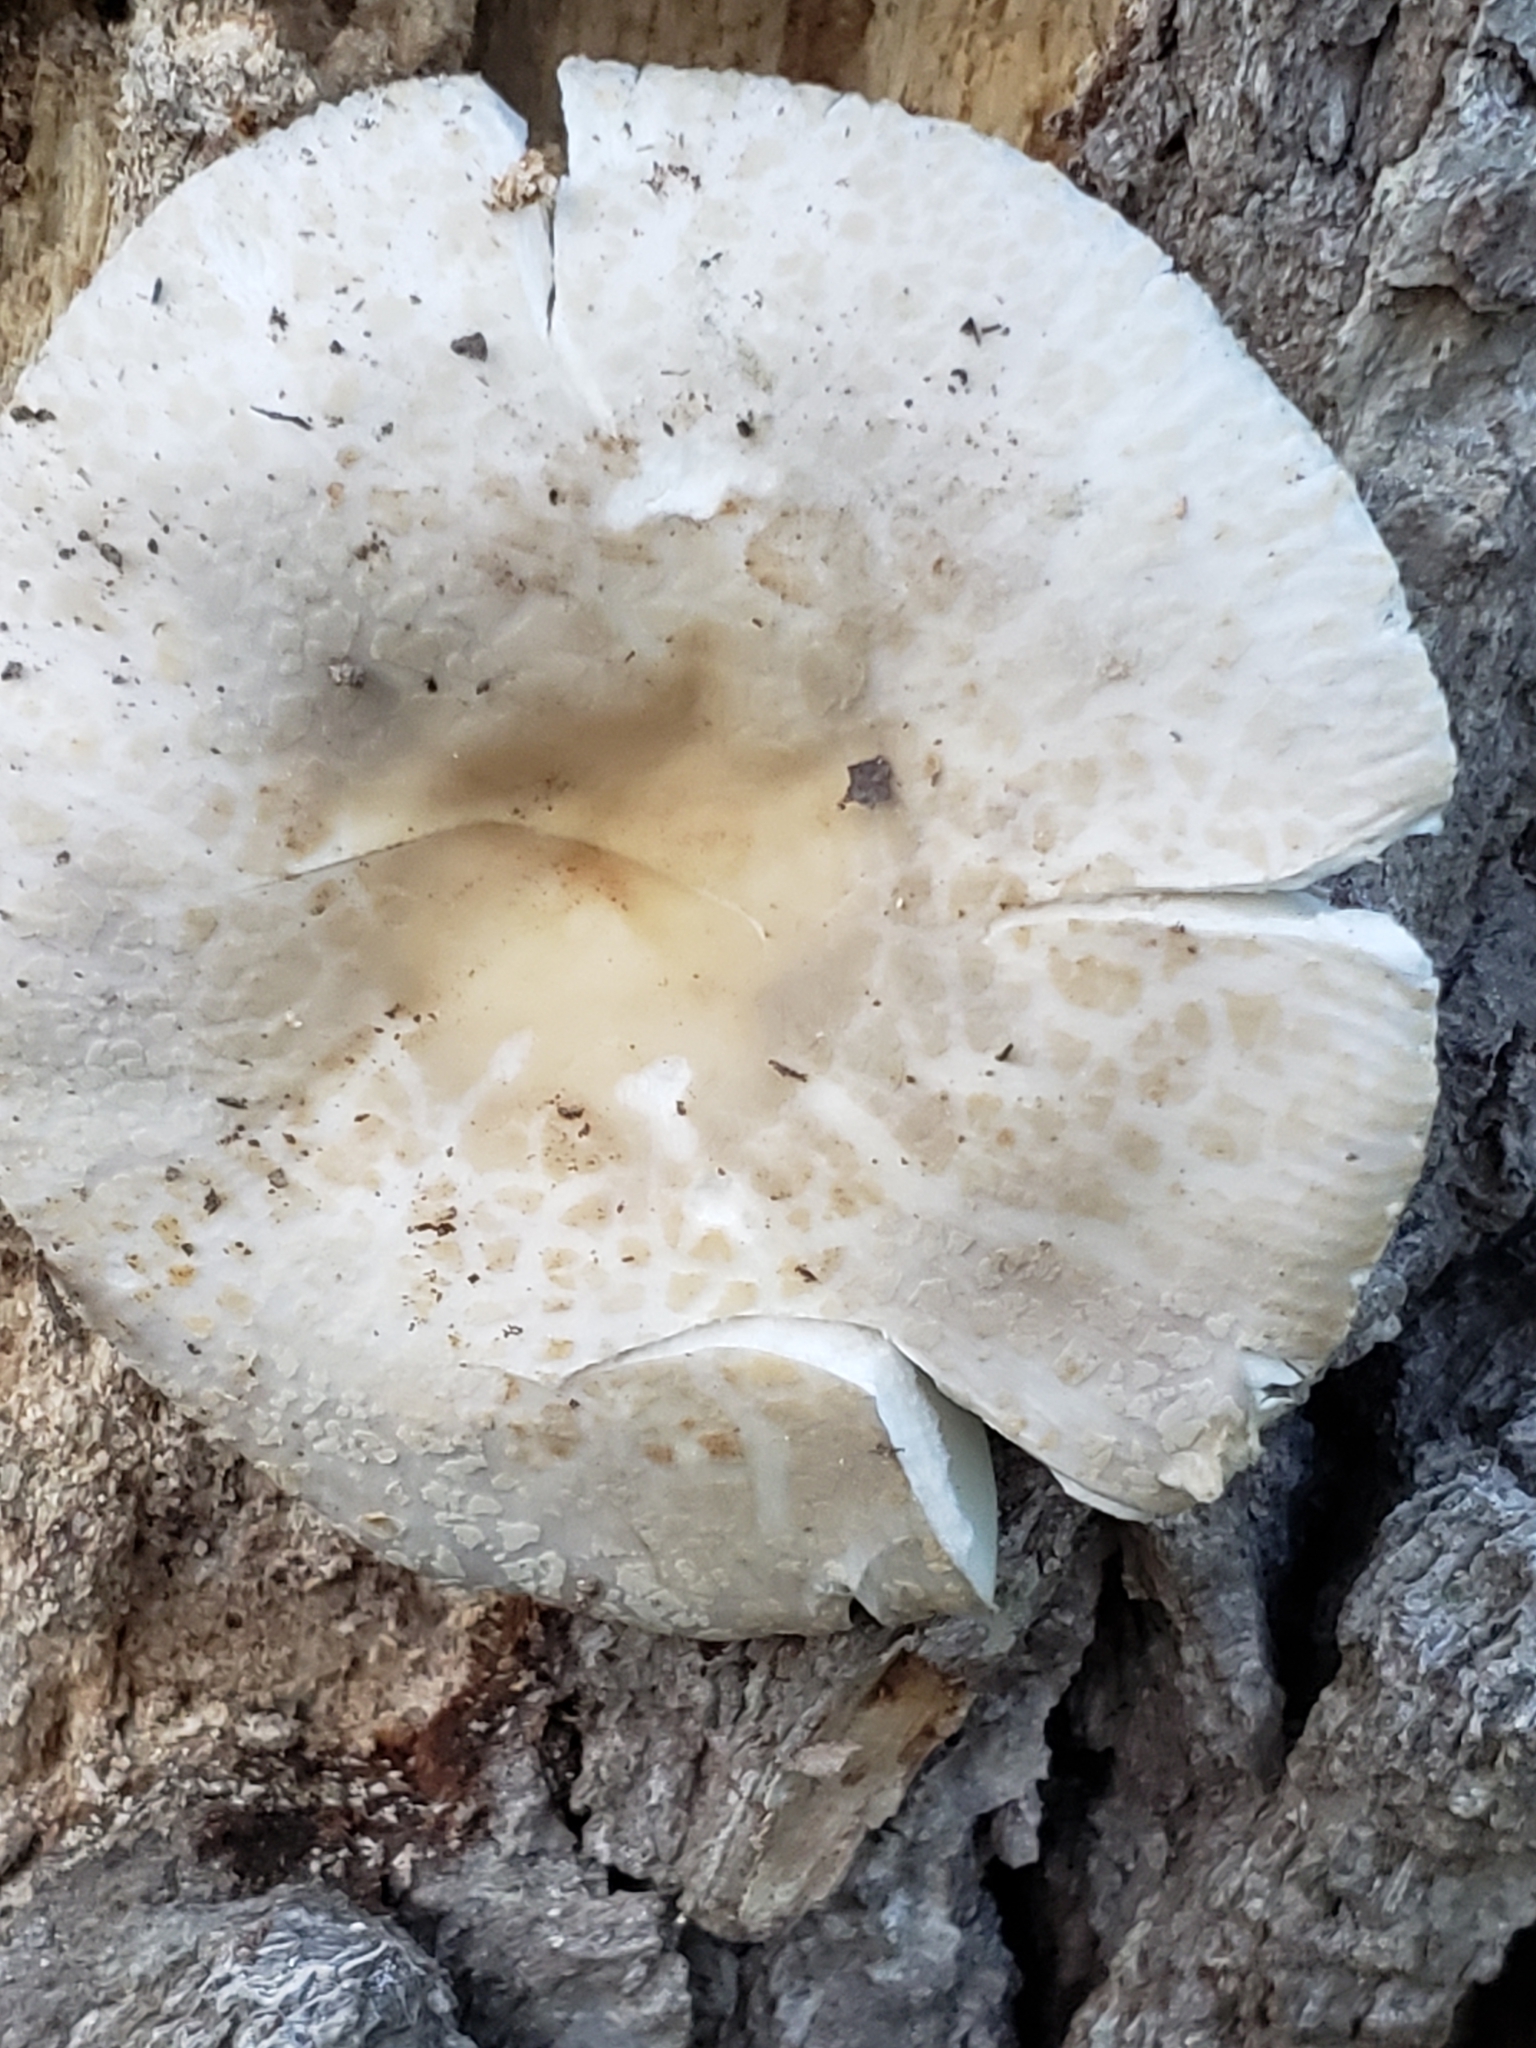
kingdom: Fungi
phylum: Basidiomycota
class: Agaricomycetes
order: Russulales
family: Russulaceae
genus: Russula
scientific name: Russula crustosa
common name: Green quilt russula
